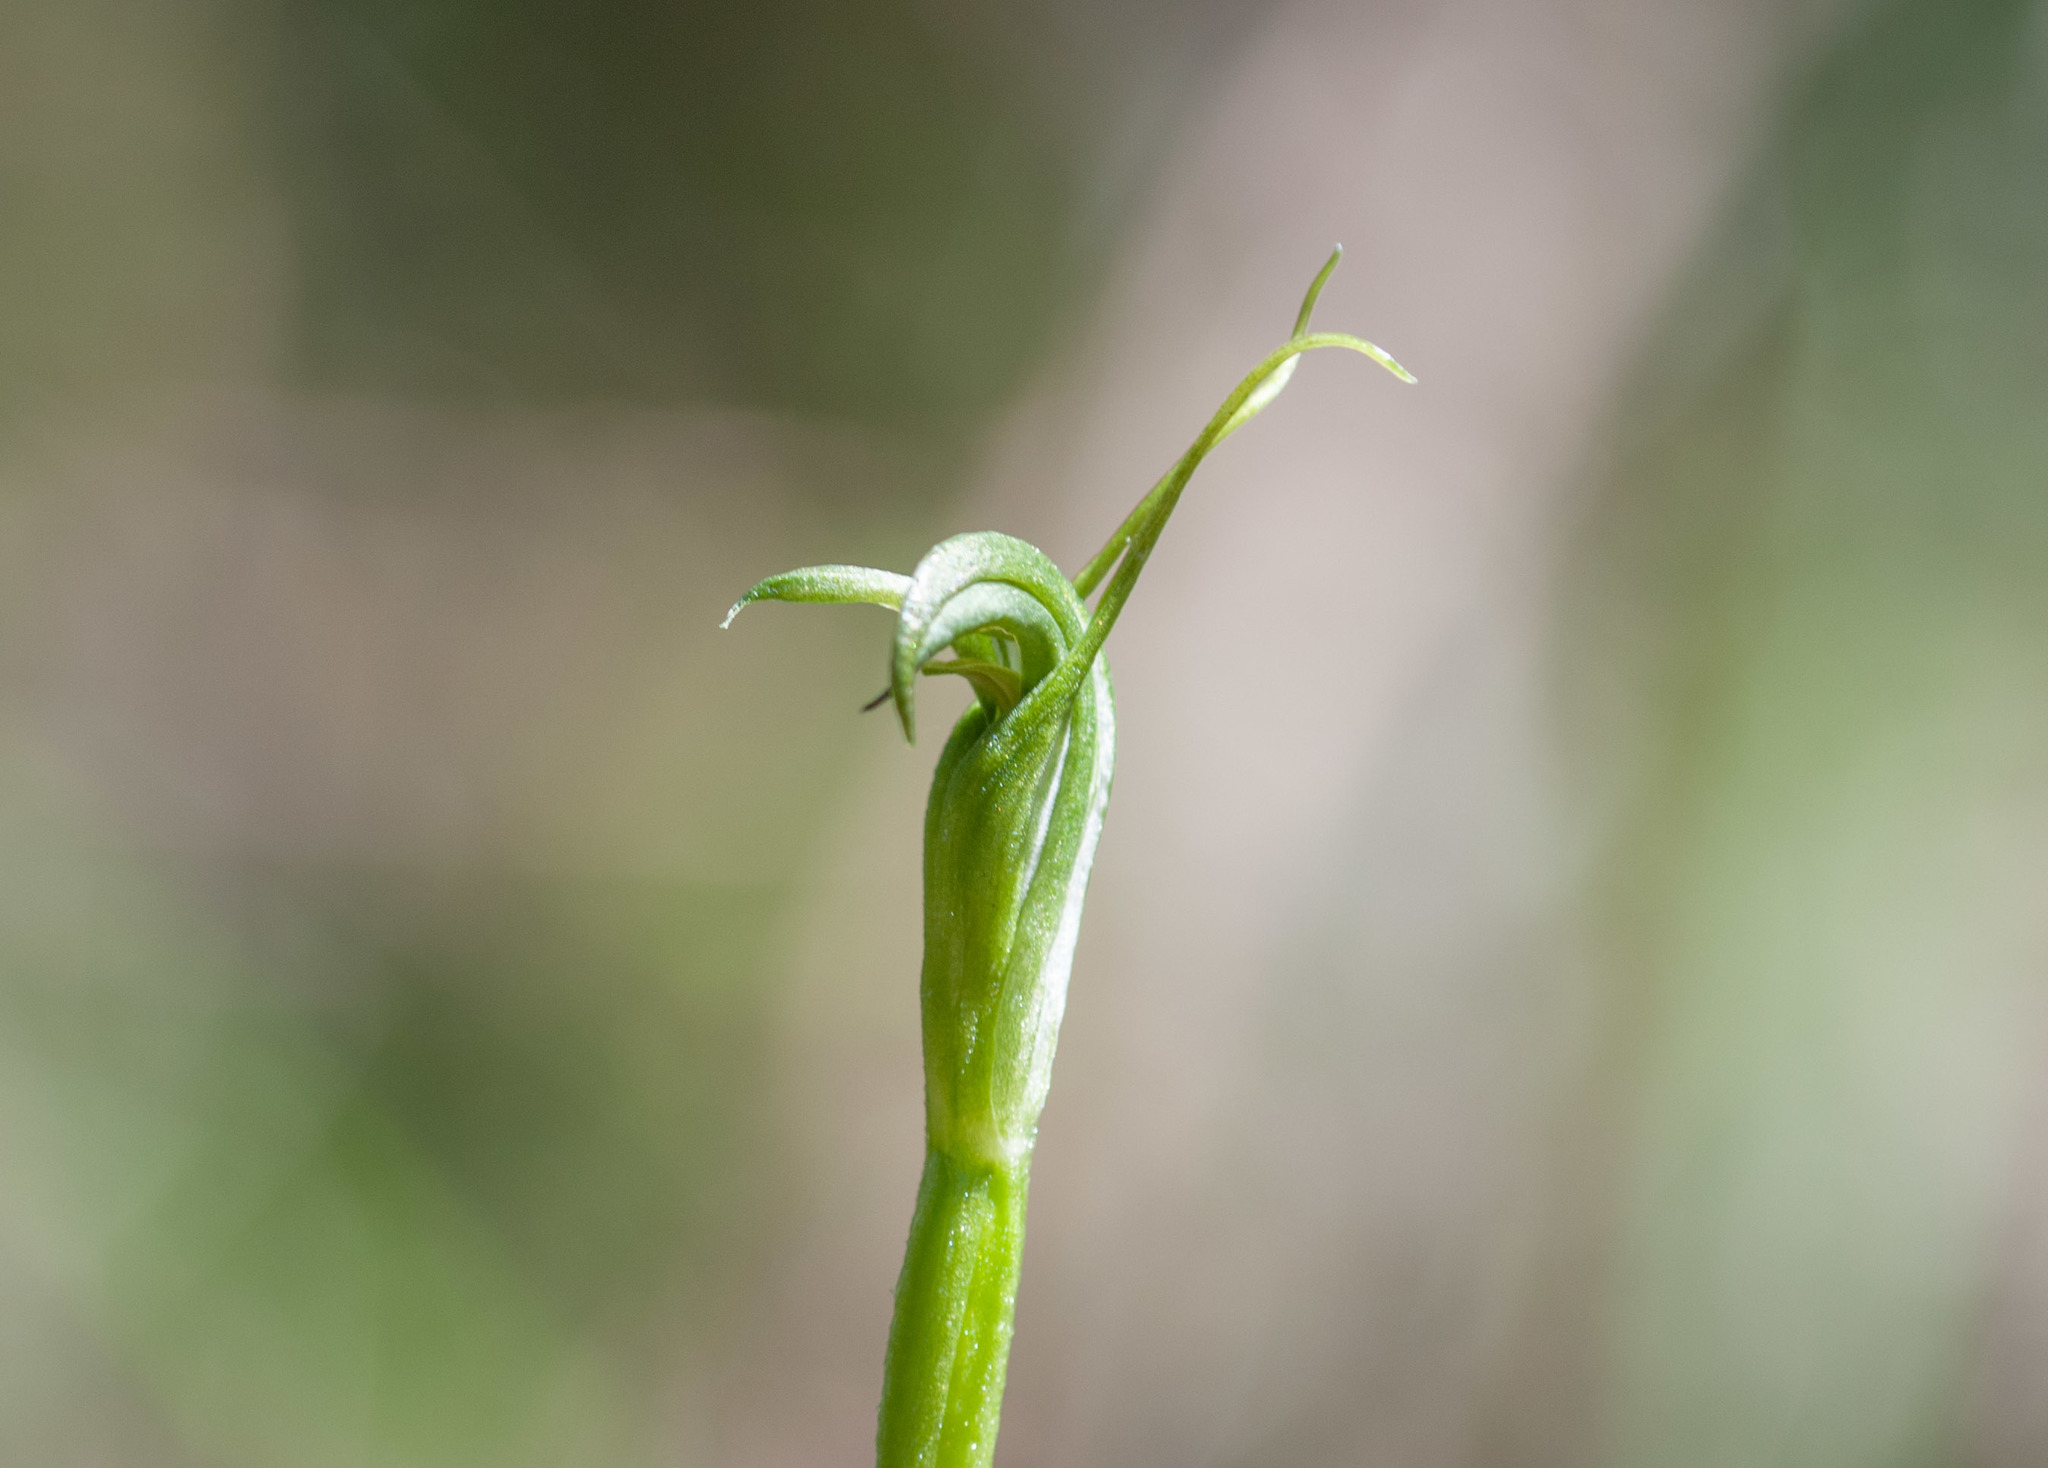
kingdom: Plantae
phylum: Tracheophyta
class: Liliopsida
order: Asparagales
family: Orchidaceae
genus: Pterostylis
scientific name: Pterostylis foliata
